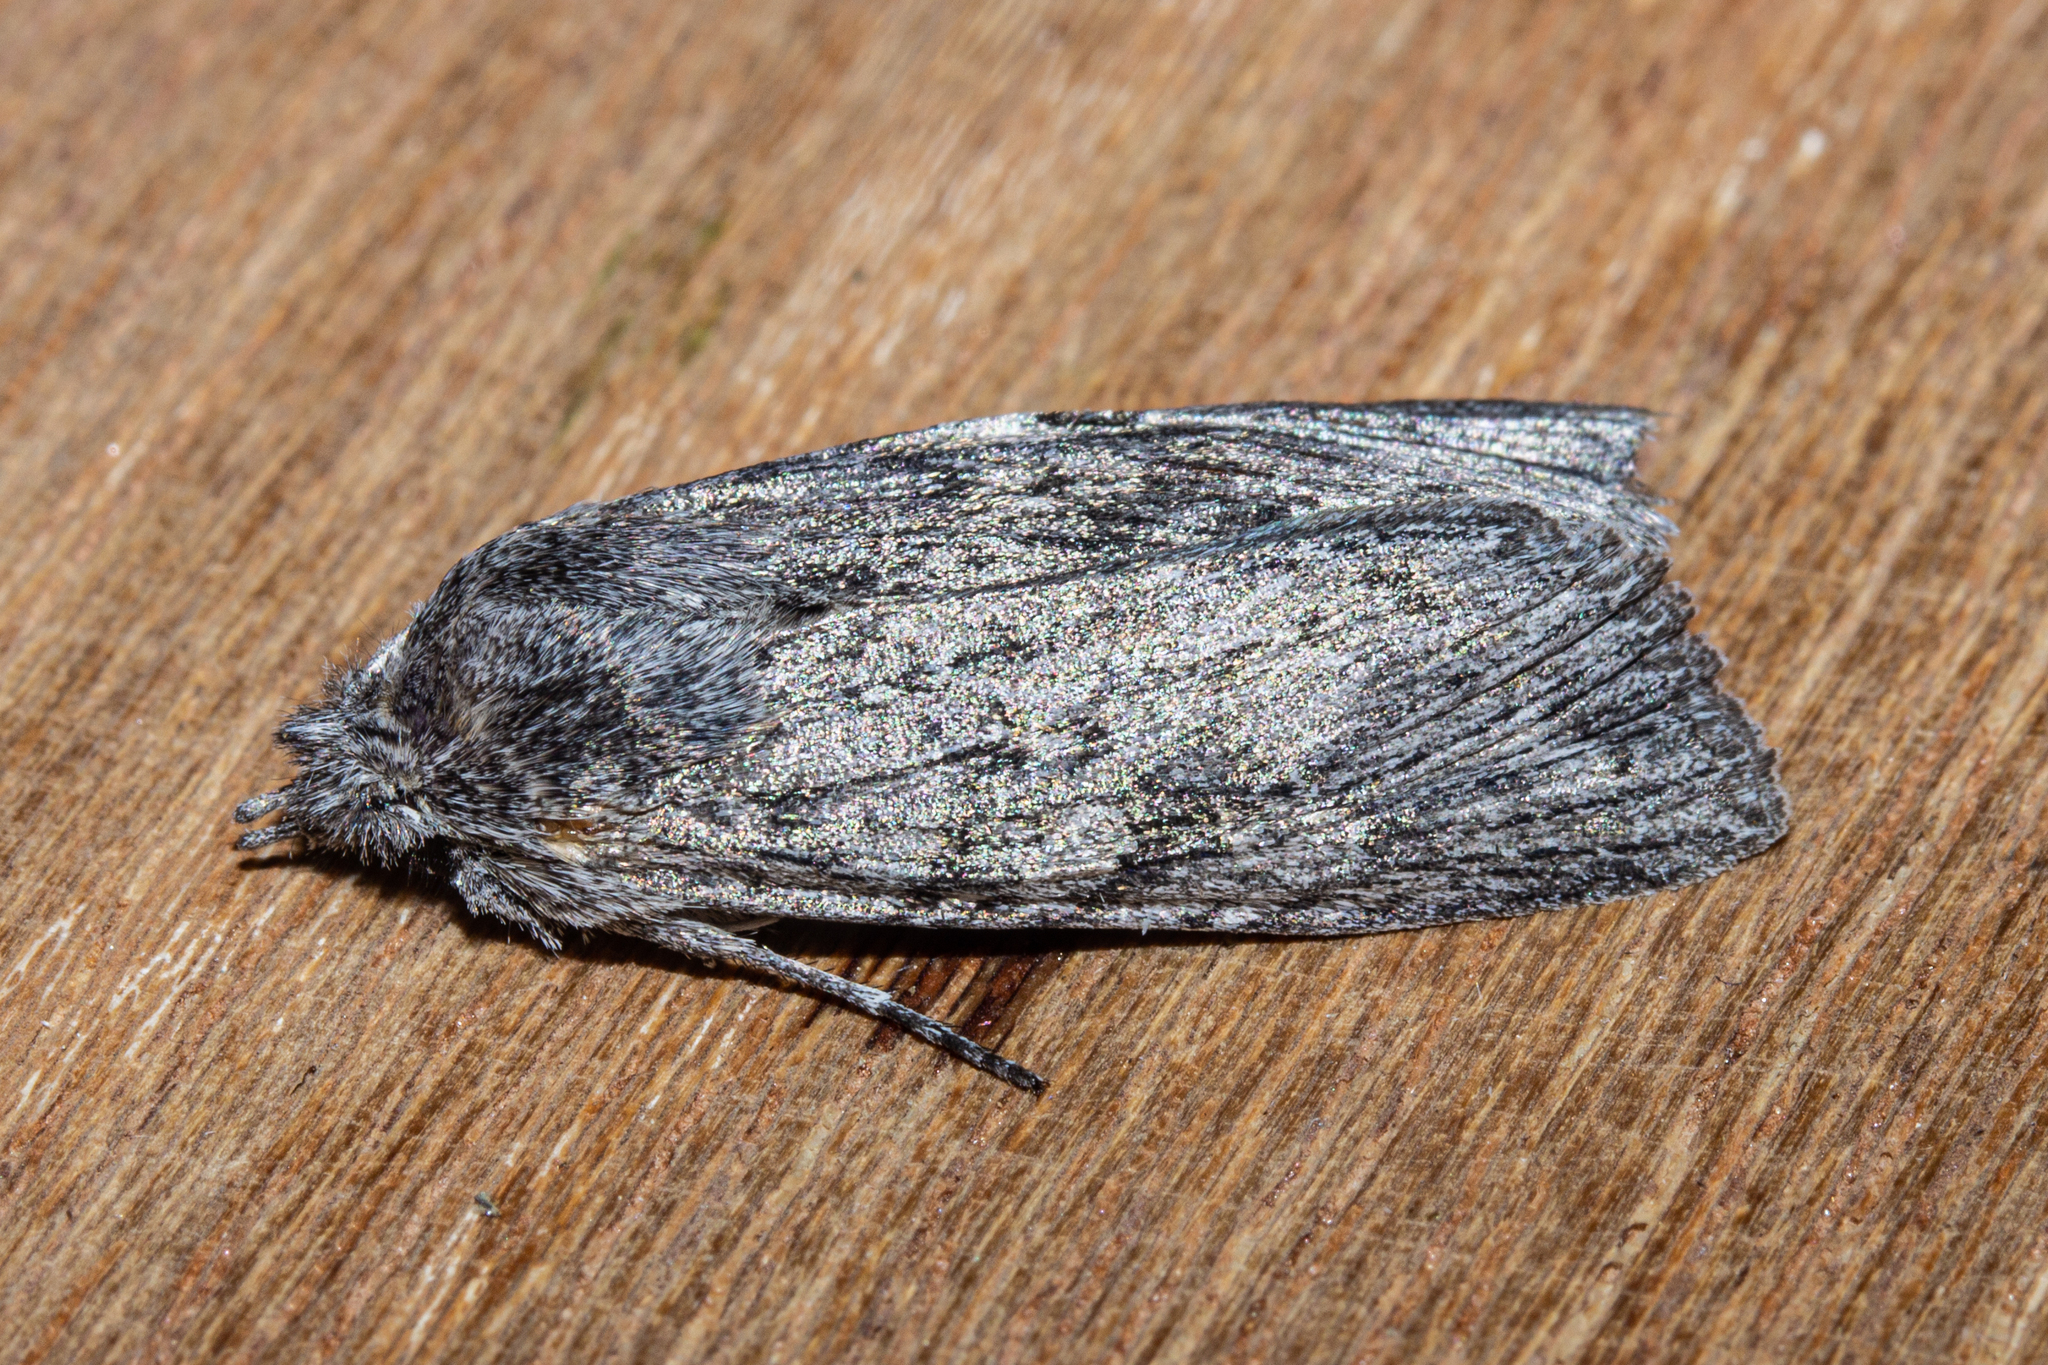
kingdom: Animalia
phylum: Arthropoda
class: Insecta
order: Lepidoptera
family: Noctuidae
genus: Physetica
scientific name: Physetica phricias
